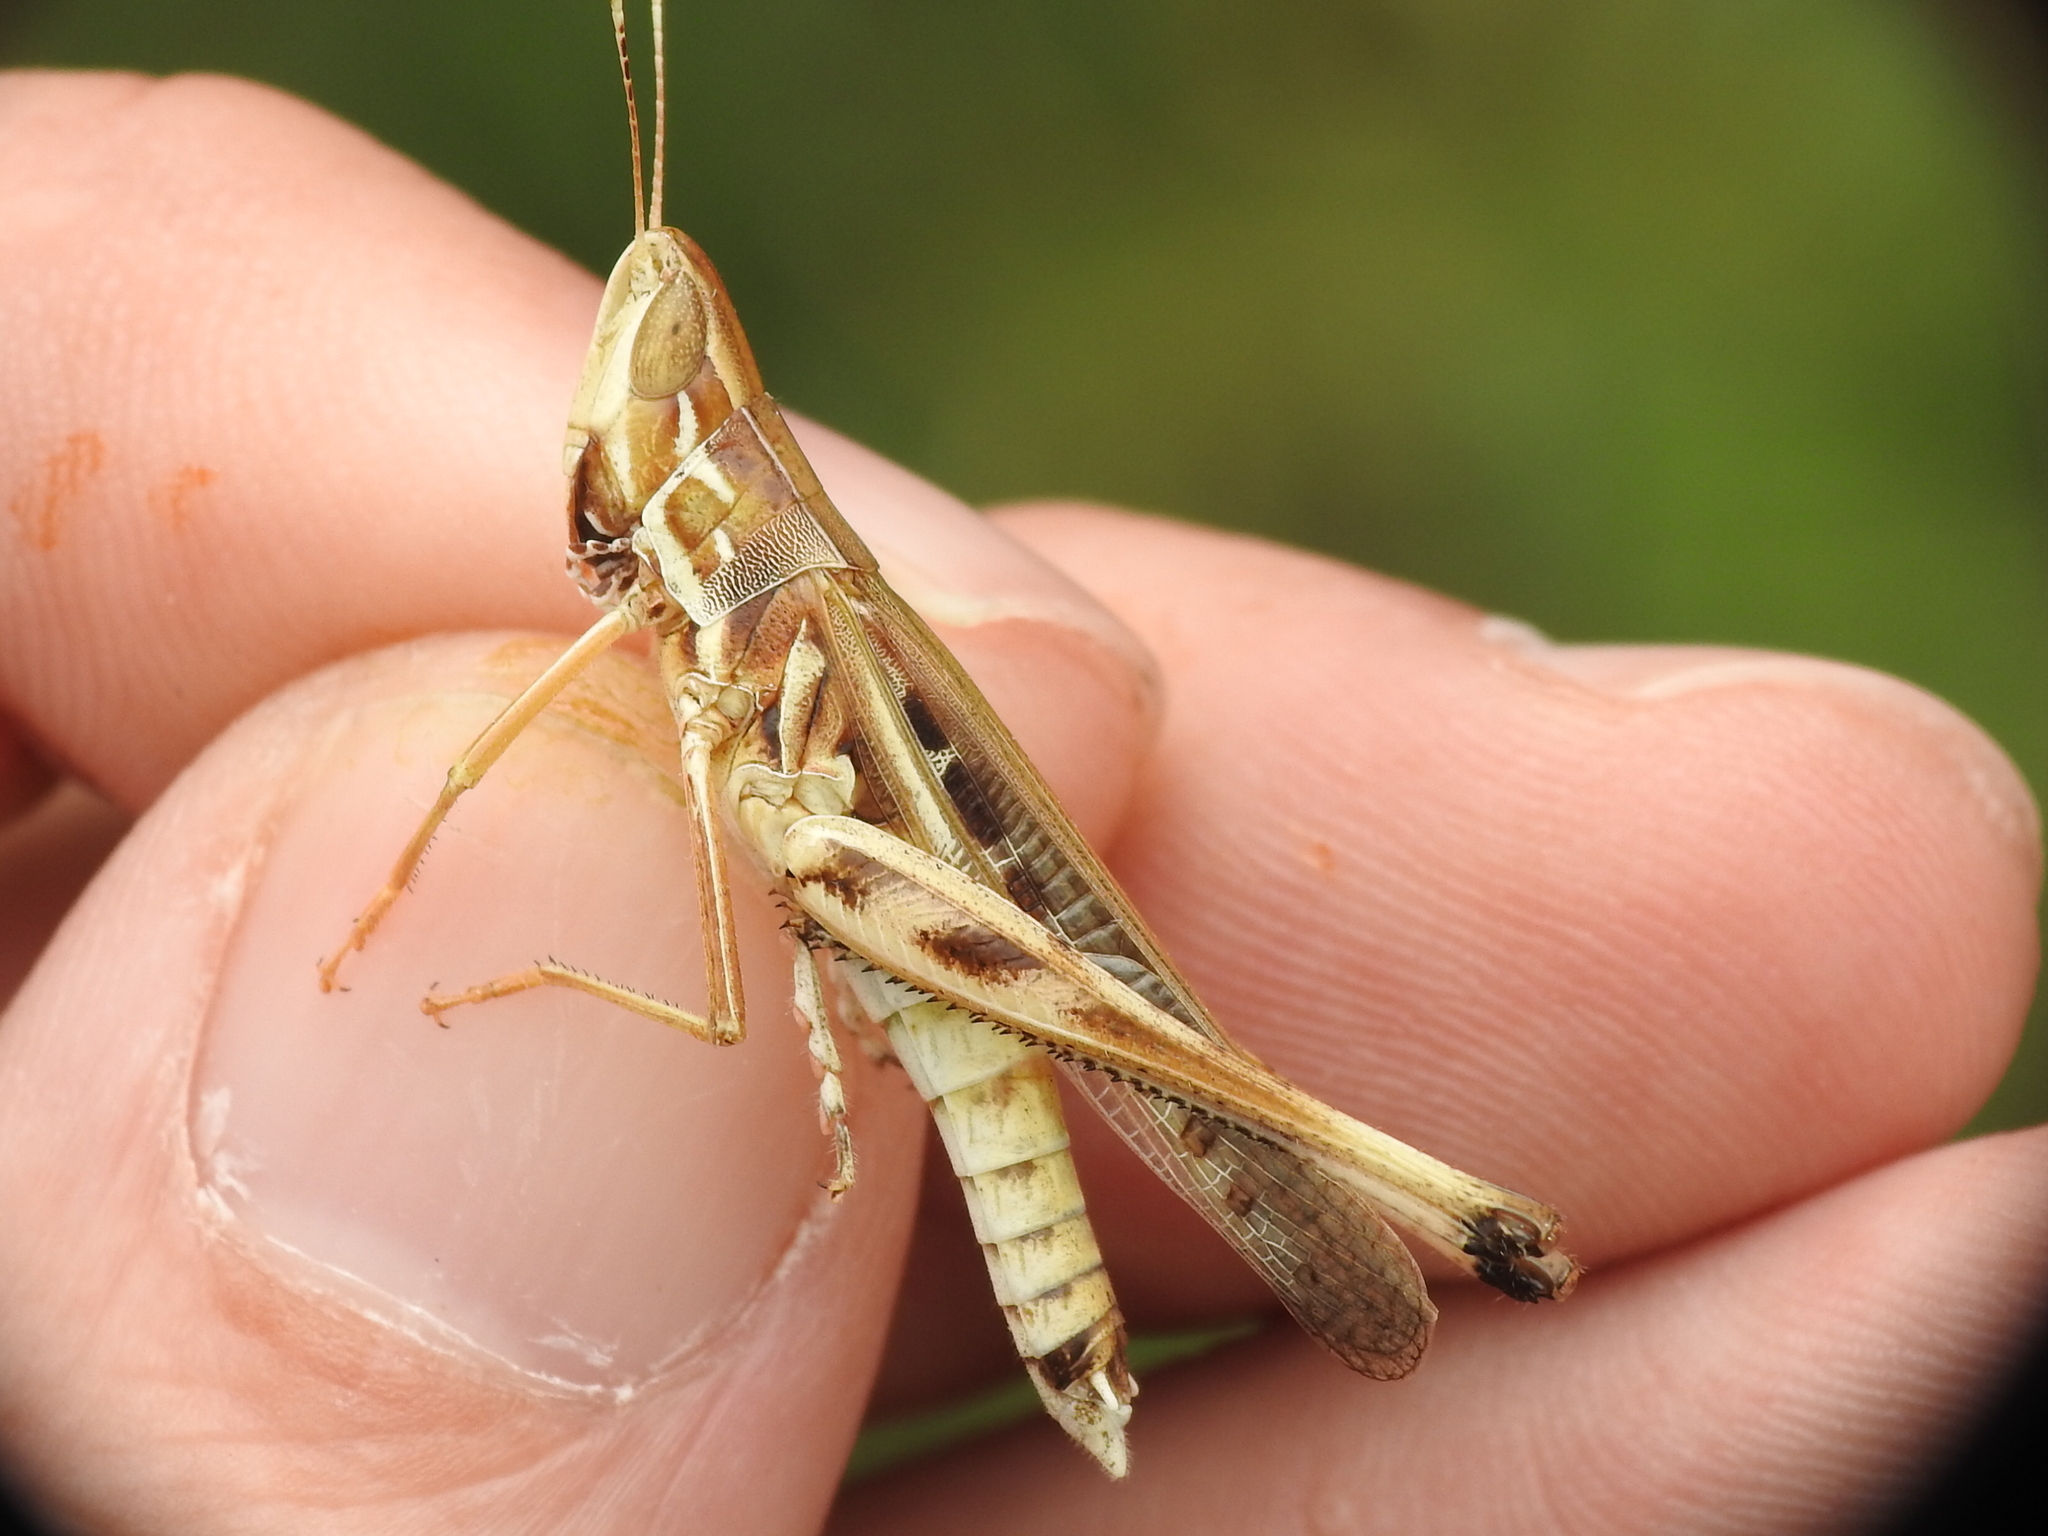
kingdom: Animalia
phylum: Arthropoda
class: Insecta
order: Orthoptera
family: Acrididae
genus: Syrbula
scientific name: Syrbula admirabilis
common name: Handsome grasshopper
